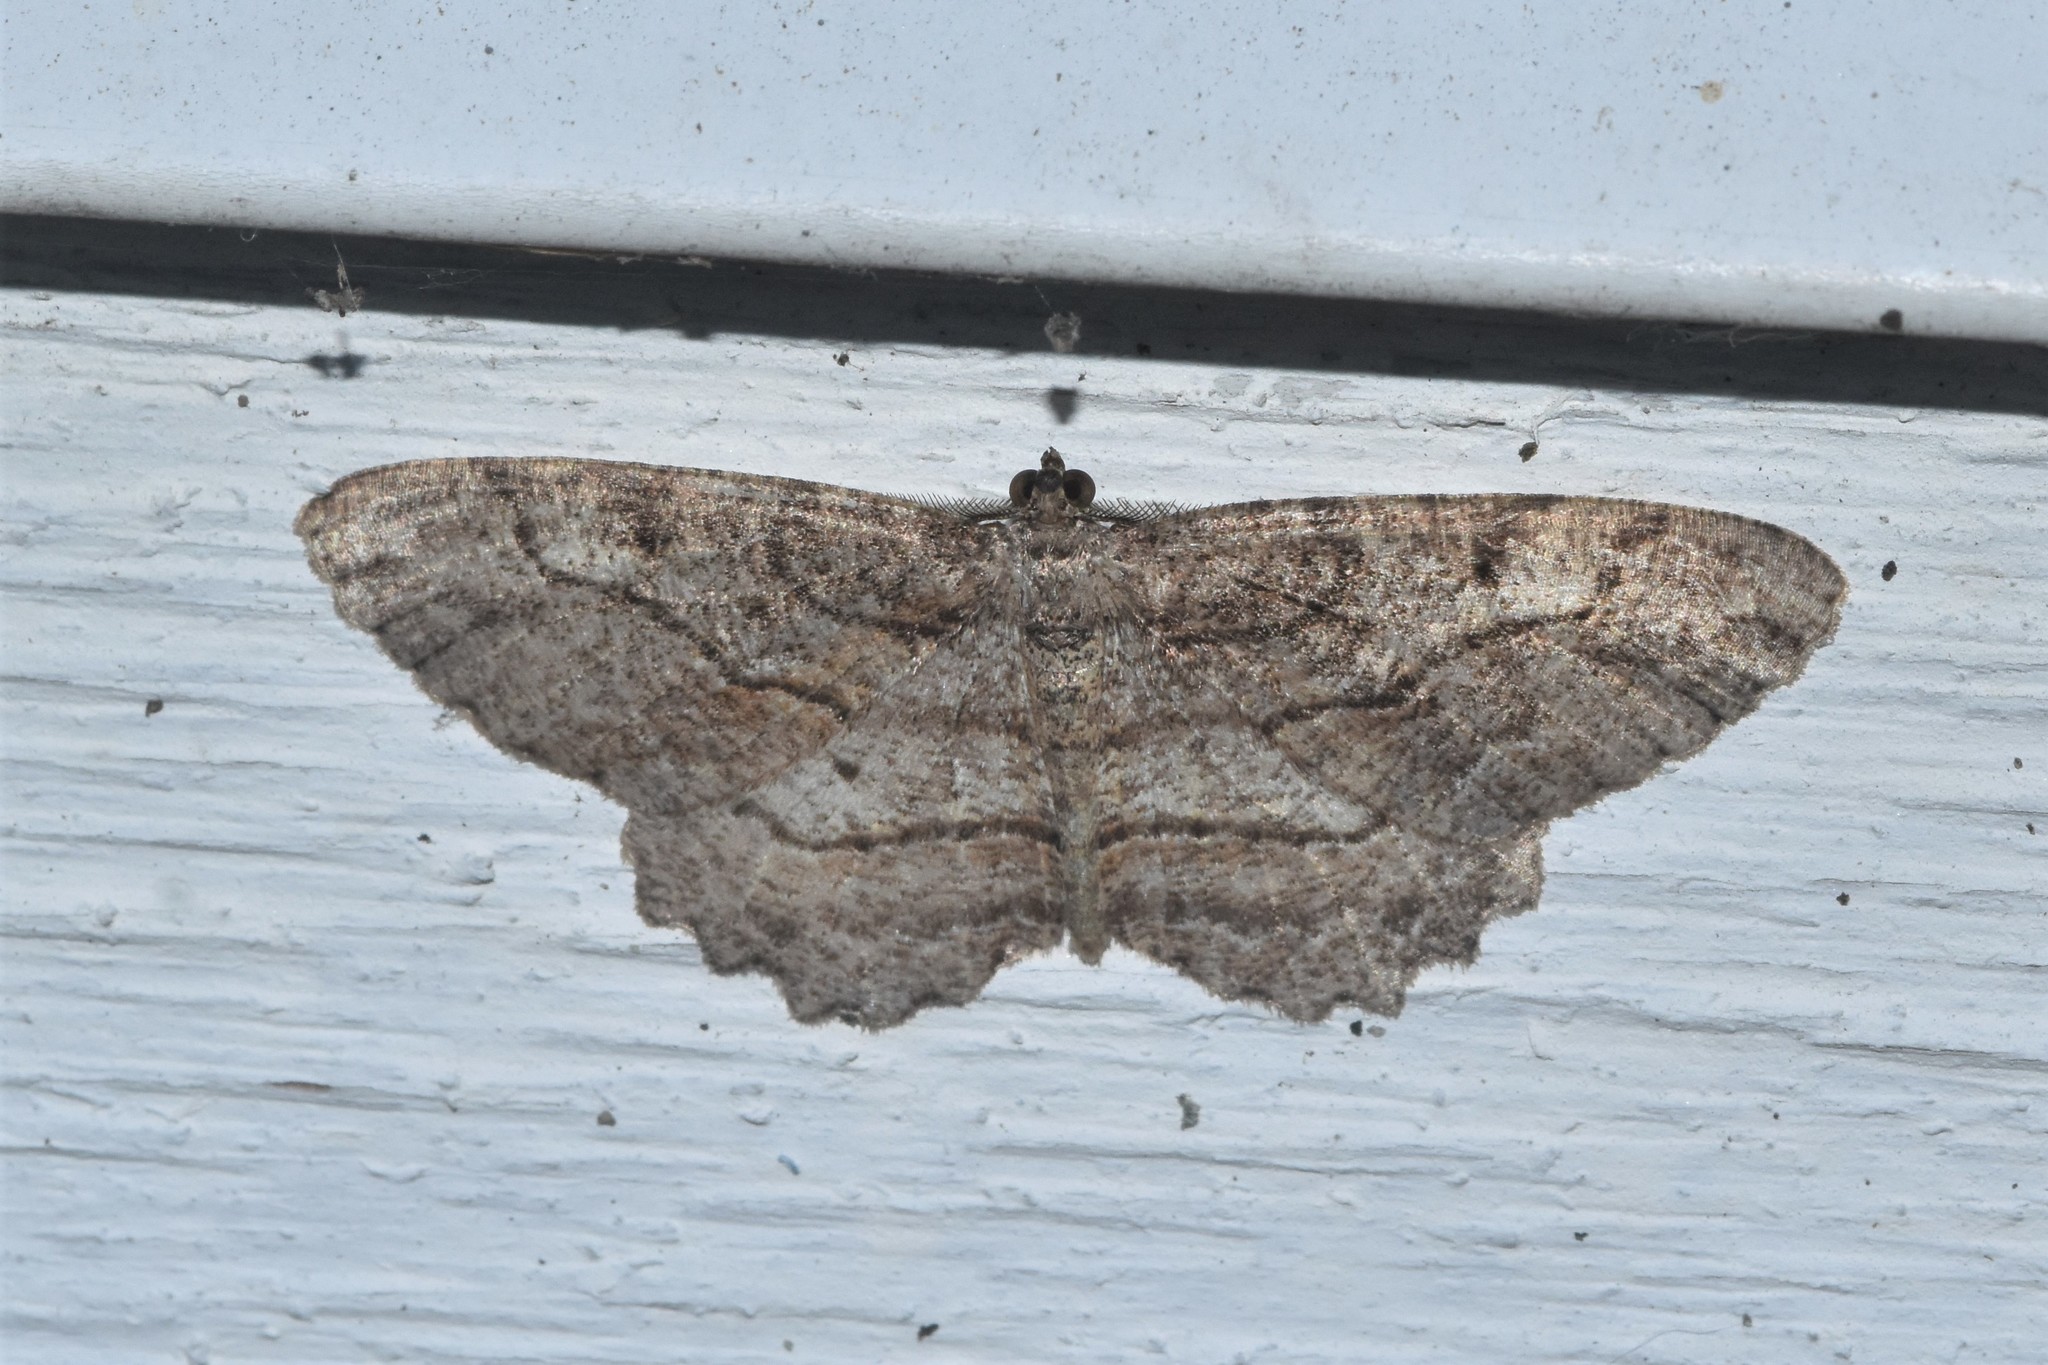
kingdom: Animalia
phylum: Arthropoda
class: Insecta
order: Lepidoptera
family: Geometridae
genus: Neoalcis
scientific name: Neoalcis californiaria
